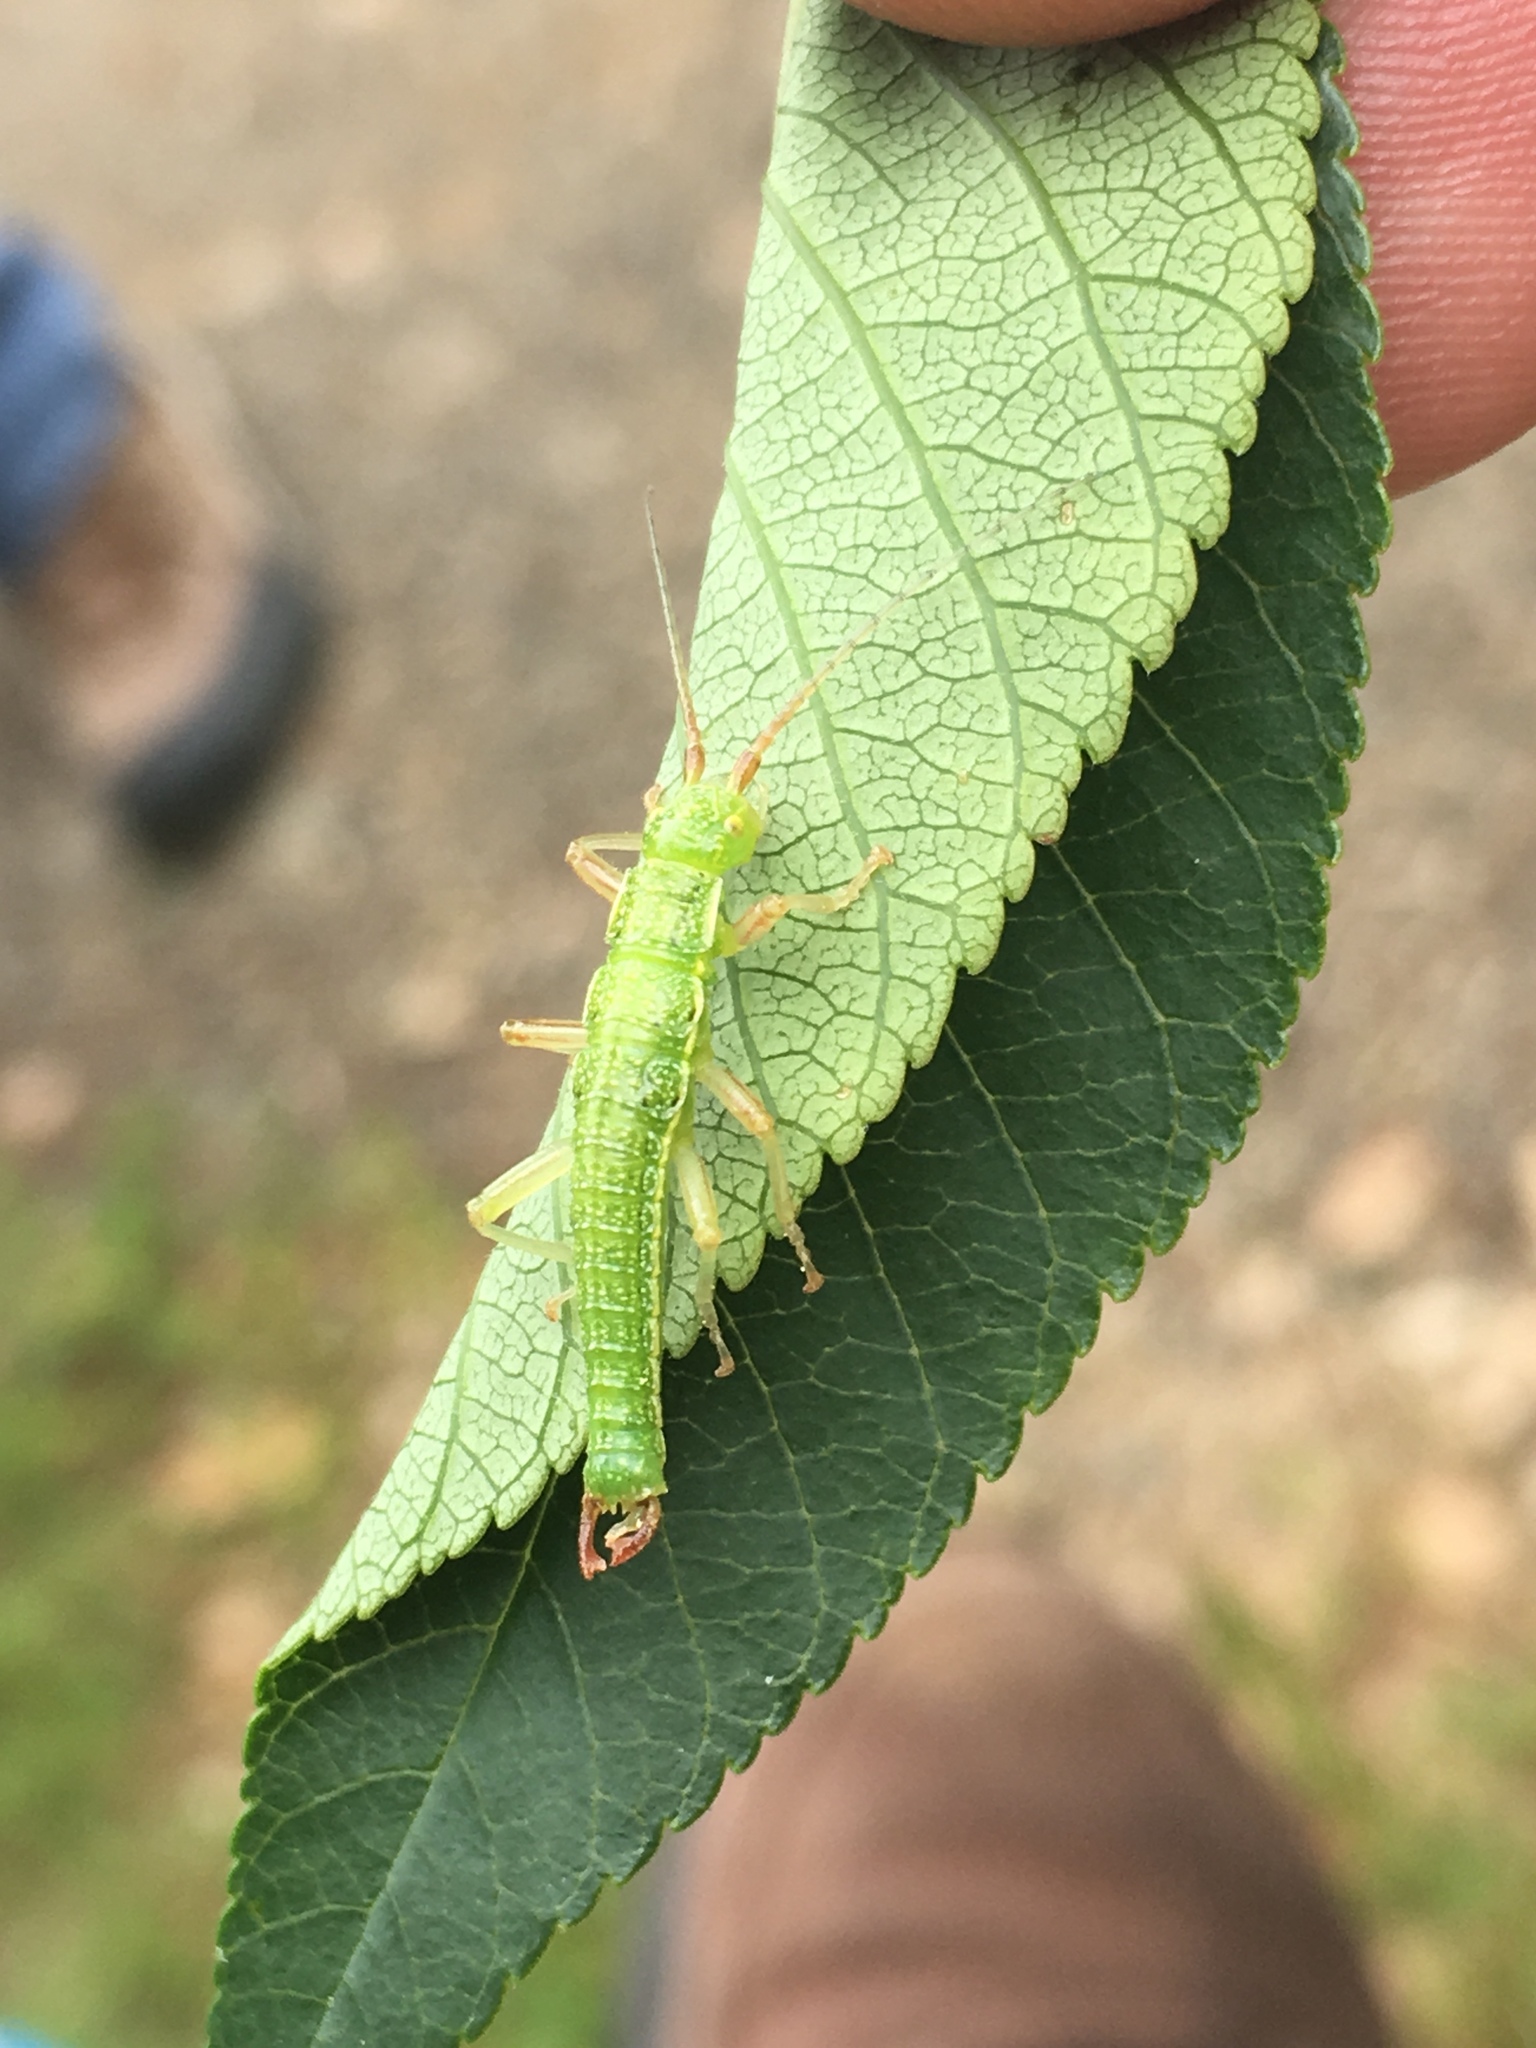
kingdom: Animalia
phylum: Arthropoda
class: Insecta
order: Phasmida
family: Timematidae
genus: Timema
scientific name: Timema californicum
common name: California timema
